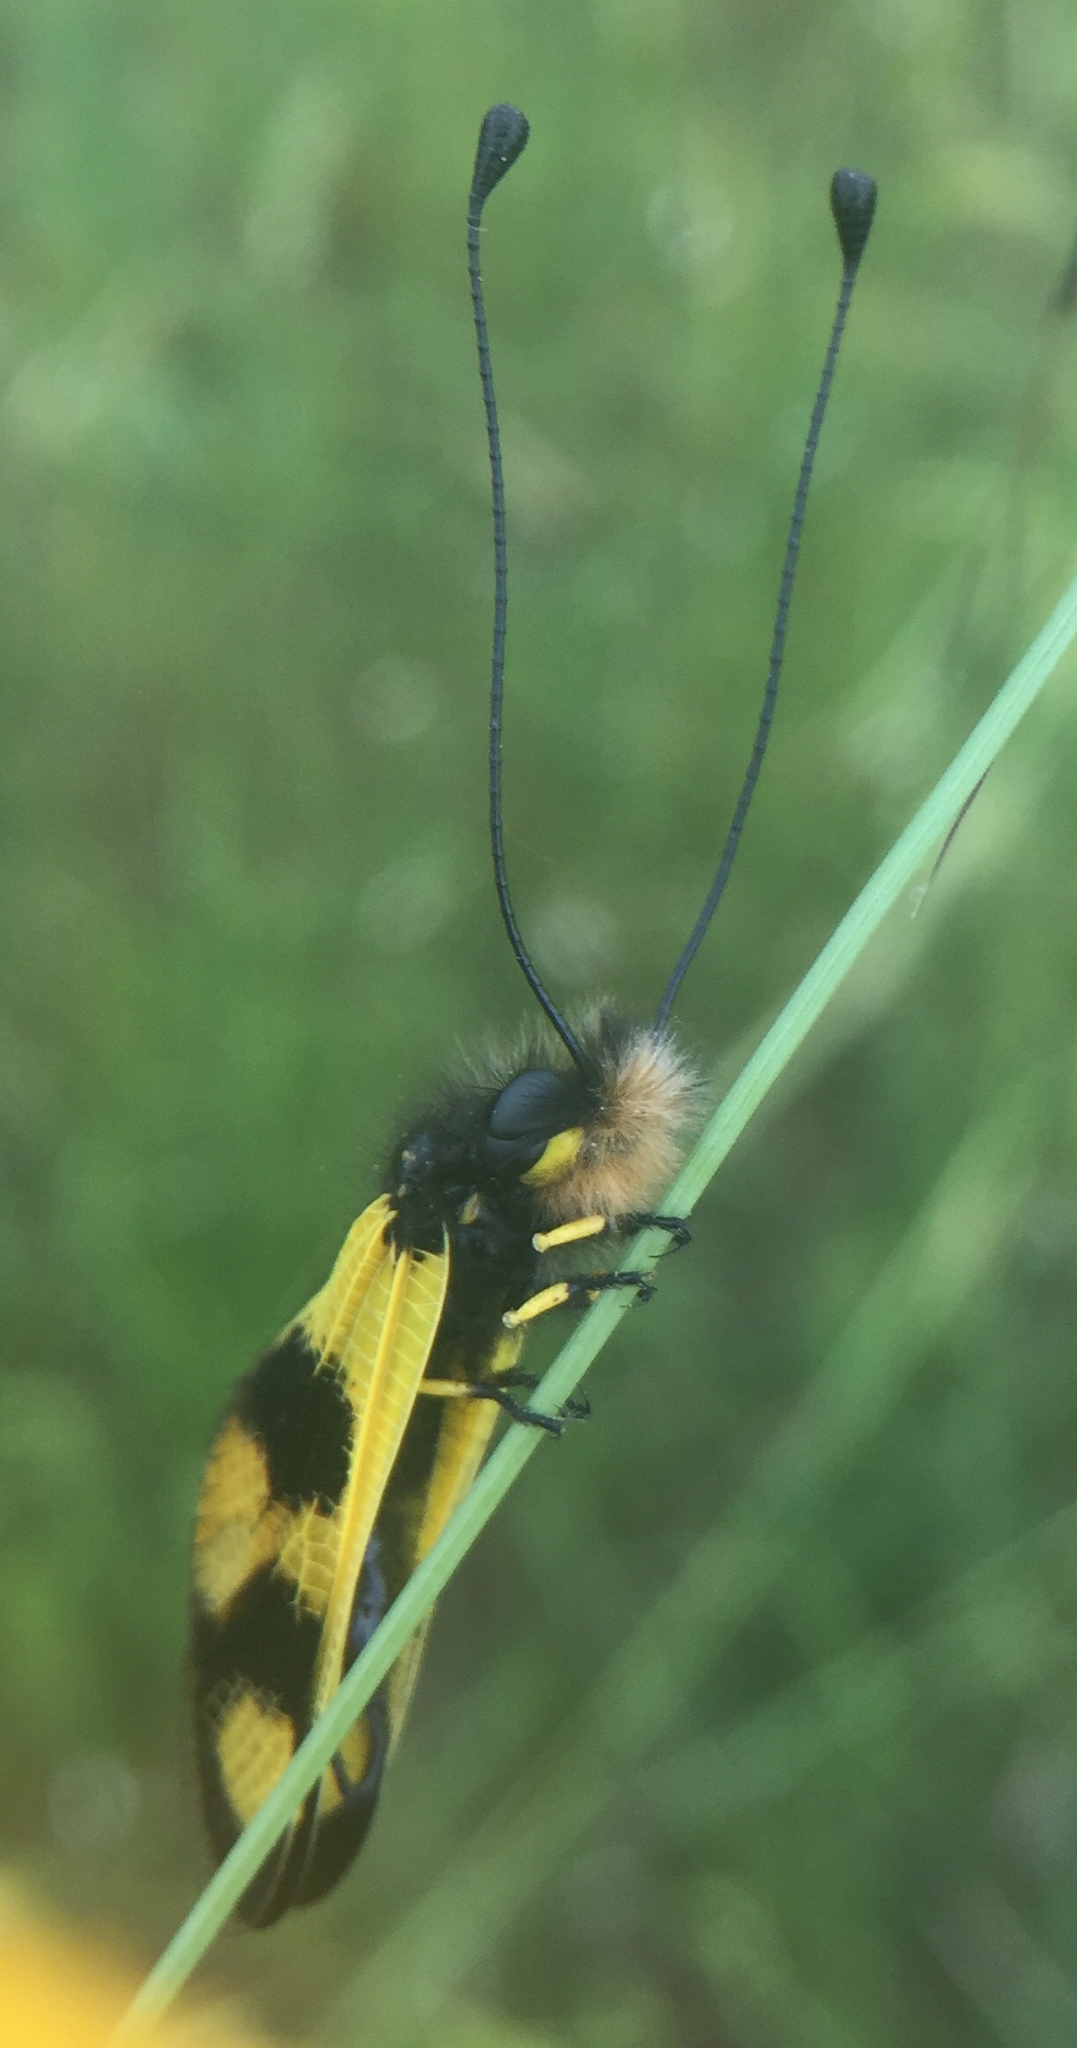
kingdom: Animalia
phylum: Arthropoda
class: Insecta
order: Neuroptera
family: Ascalaphidae
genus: Libelloides
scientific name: Libelloides macaronius
